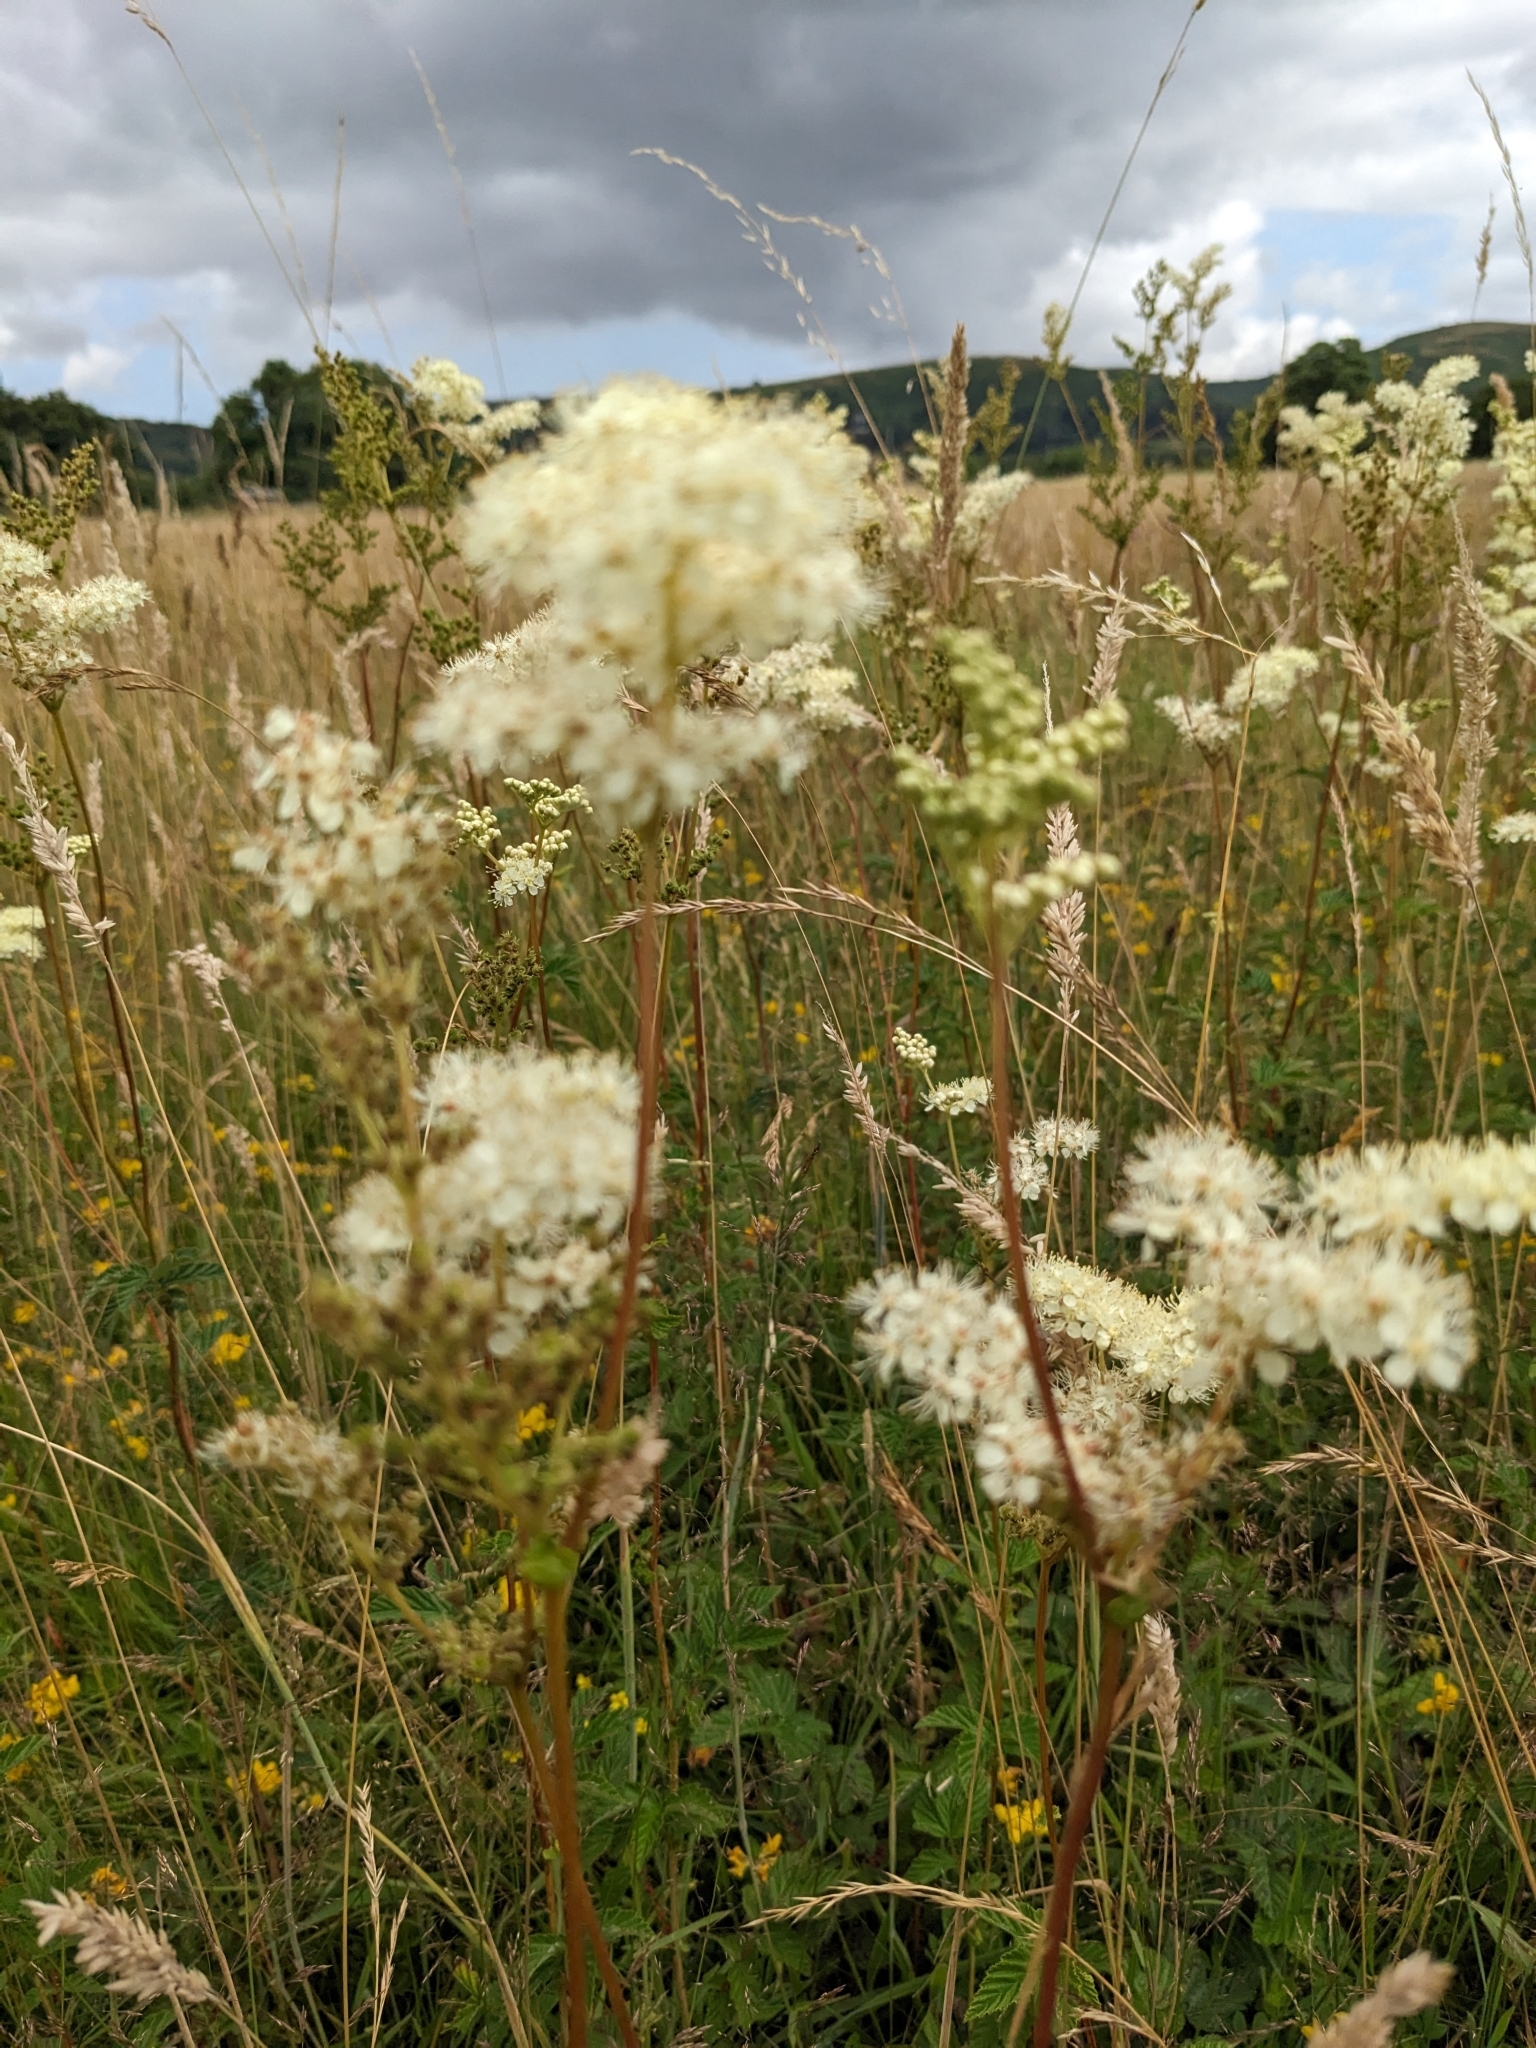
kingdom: Plantae
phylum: Tracheophyta
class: Magnoliopsida
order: Rosales
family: Rosaceae
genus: Filipendula
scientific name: Filipendula ulmaria
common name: Meadowsweet
